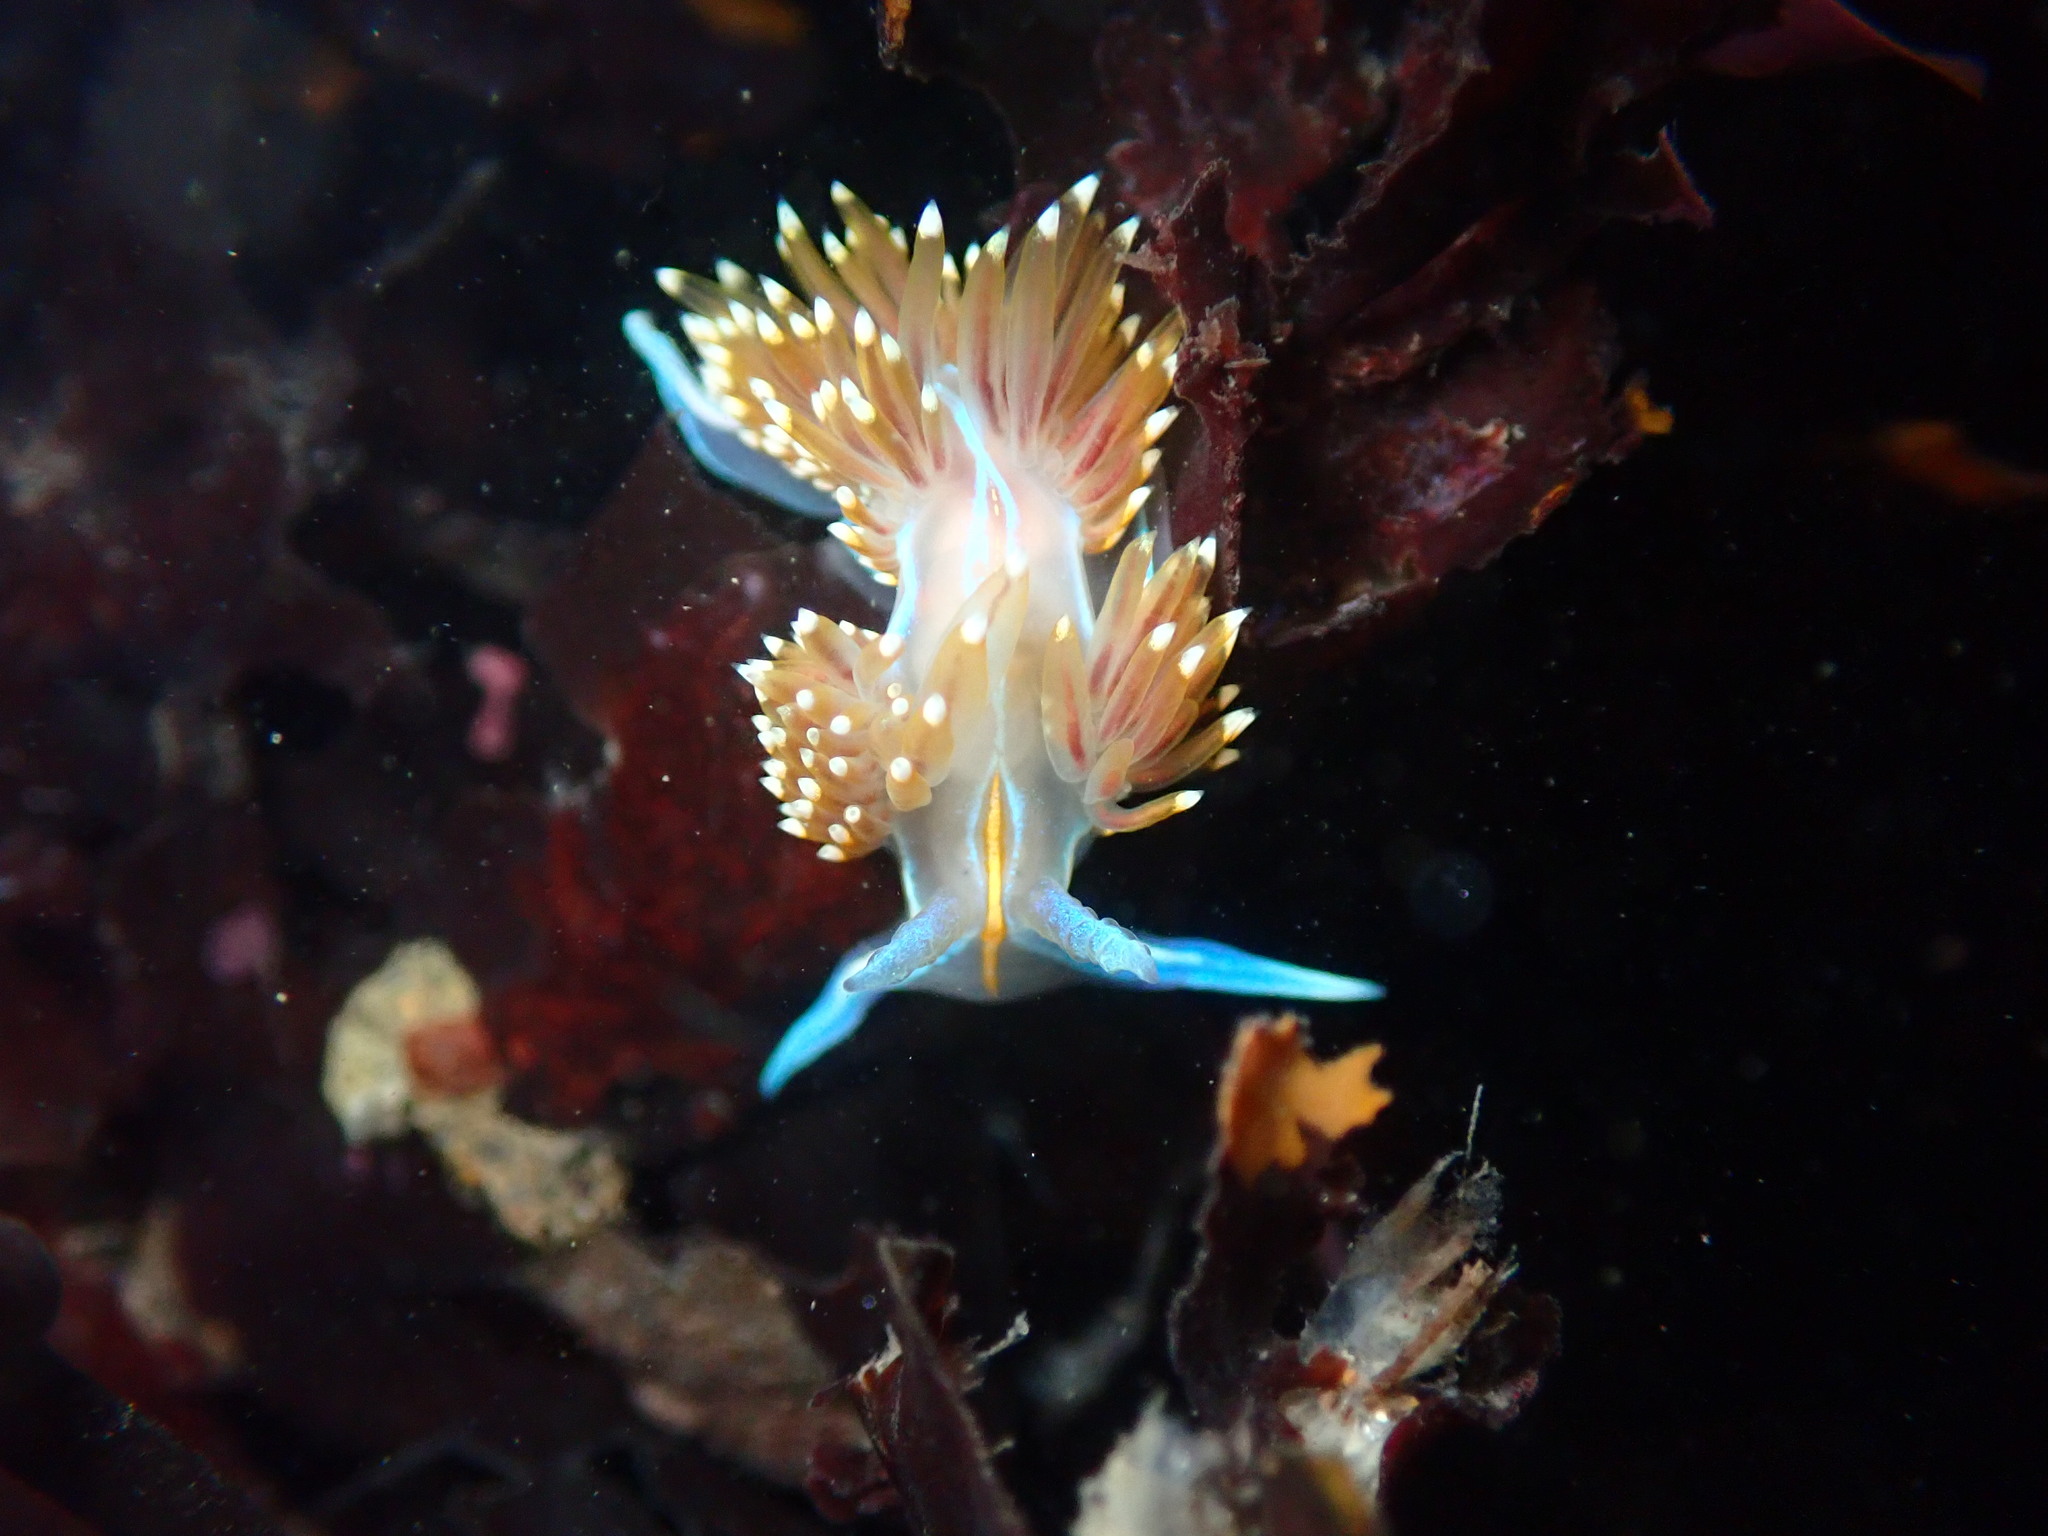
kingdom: Animalia
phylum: Mollusca
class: Gastropoda
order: Nudibranchia
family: Myrrhinidae
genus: Hermissenda
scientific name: Hermissenda opalescens
